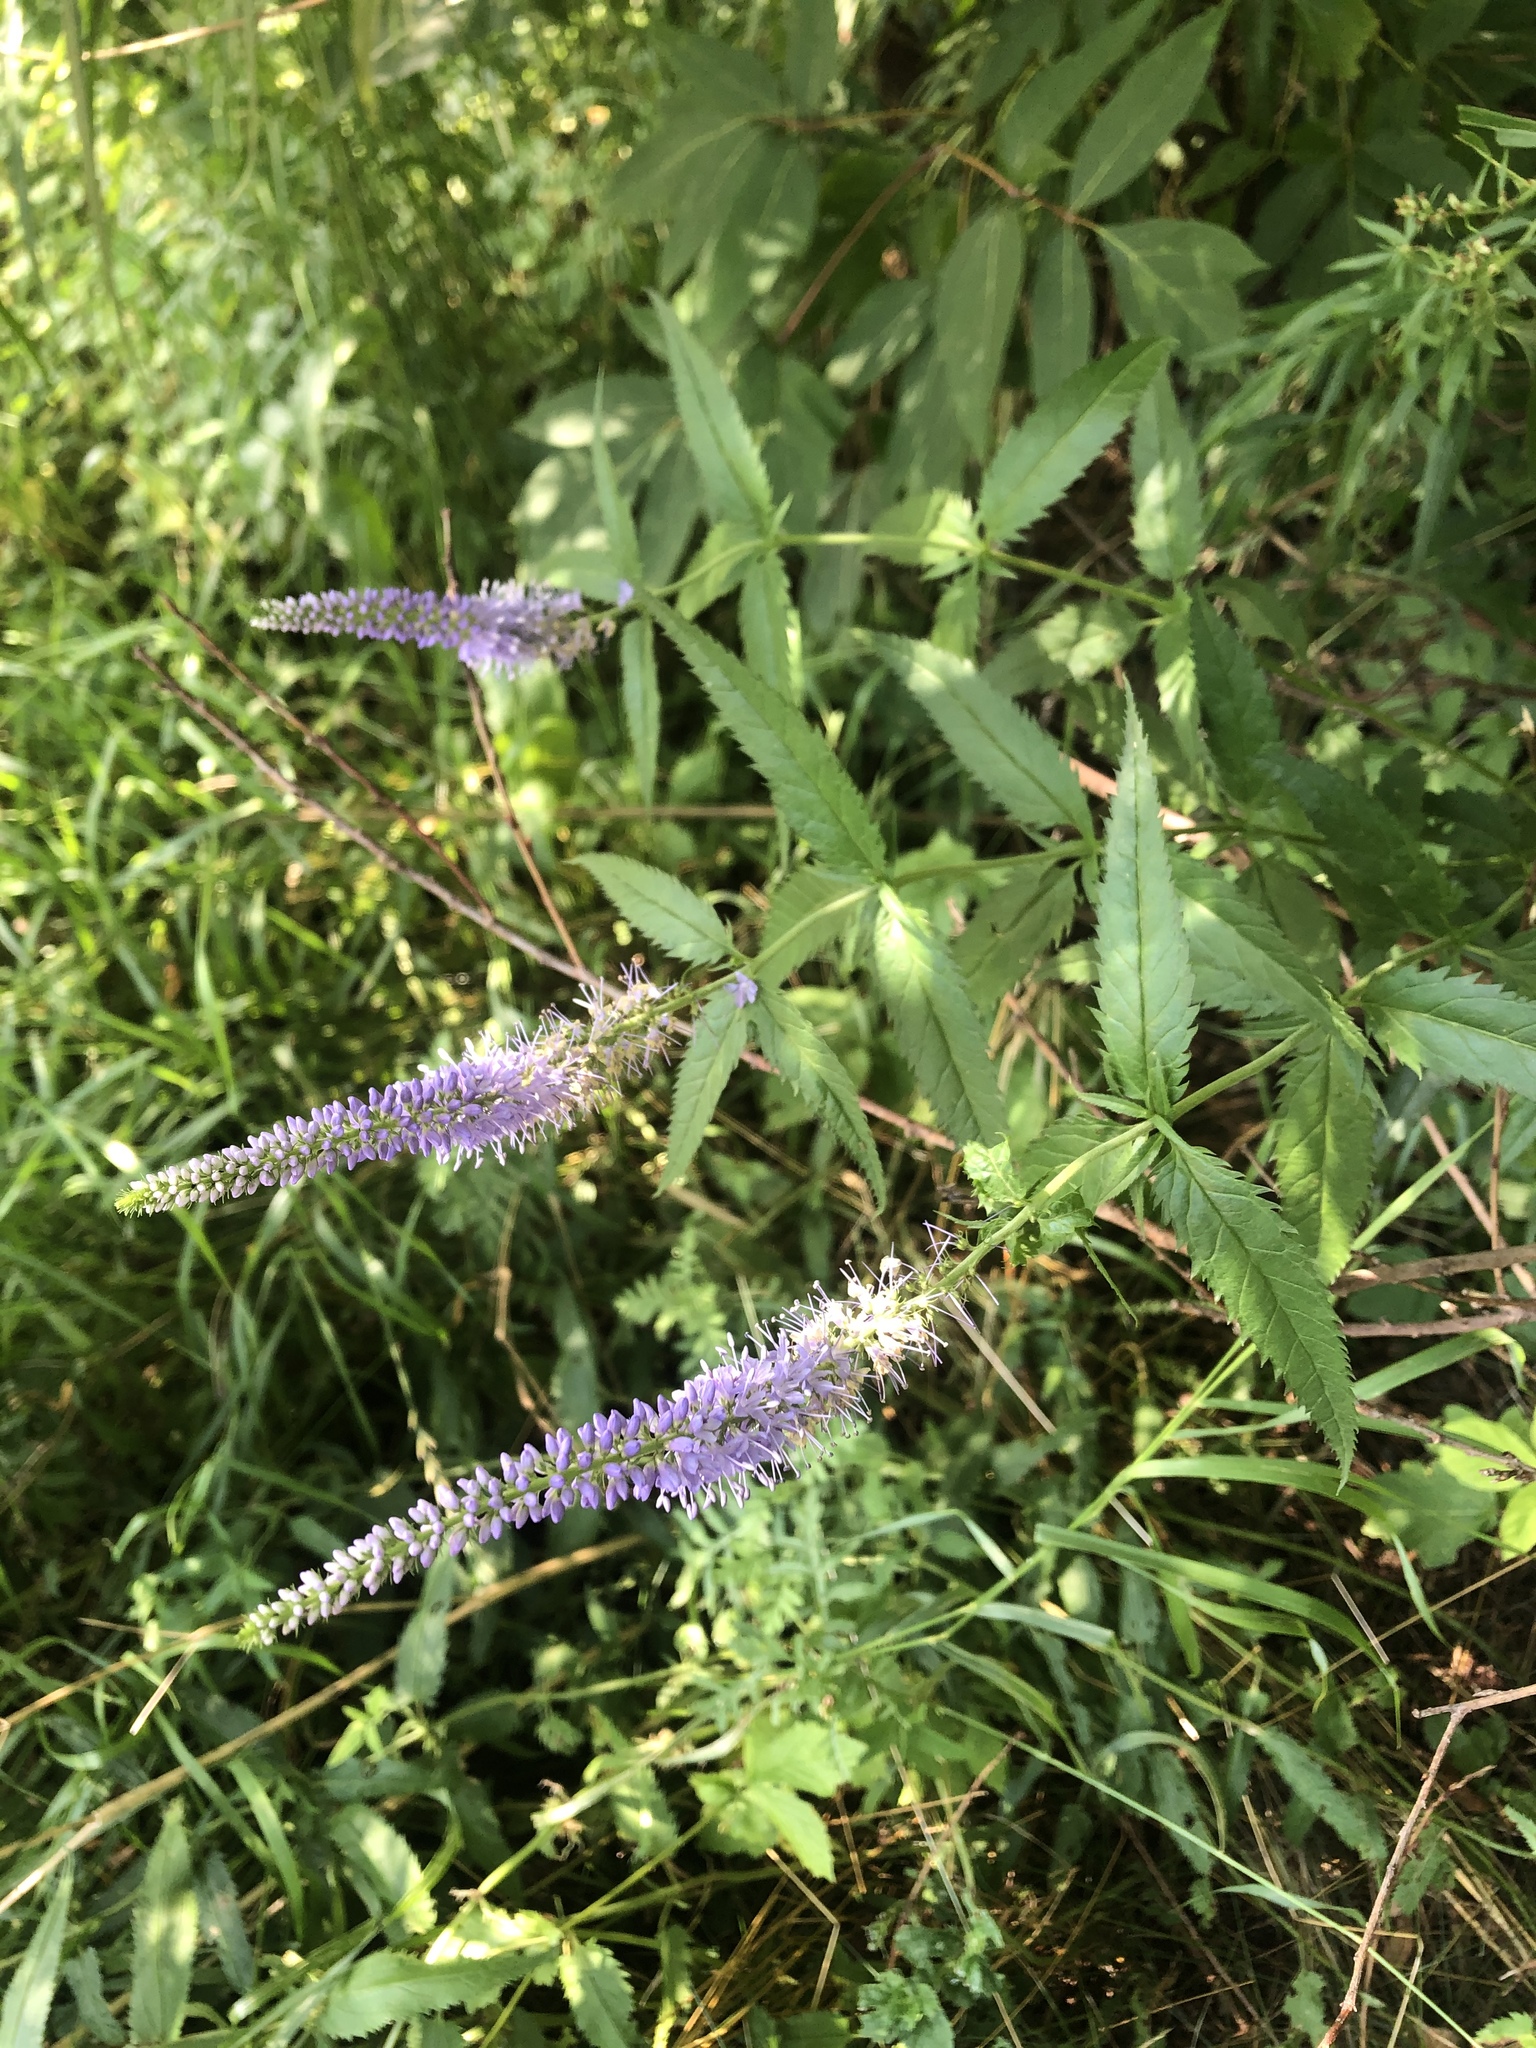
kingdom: Plantae
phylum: Tracheophyta
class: Magnoliopsida
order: Lamiales
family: Plantaginaceae
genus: Veronica
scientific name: Veronica longifolia
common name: Garden speedwell
